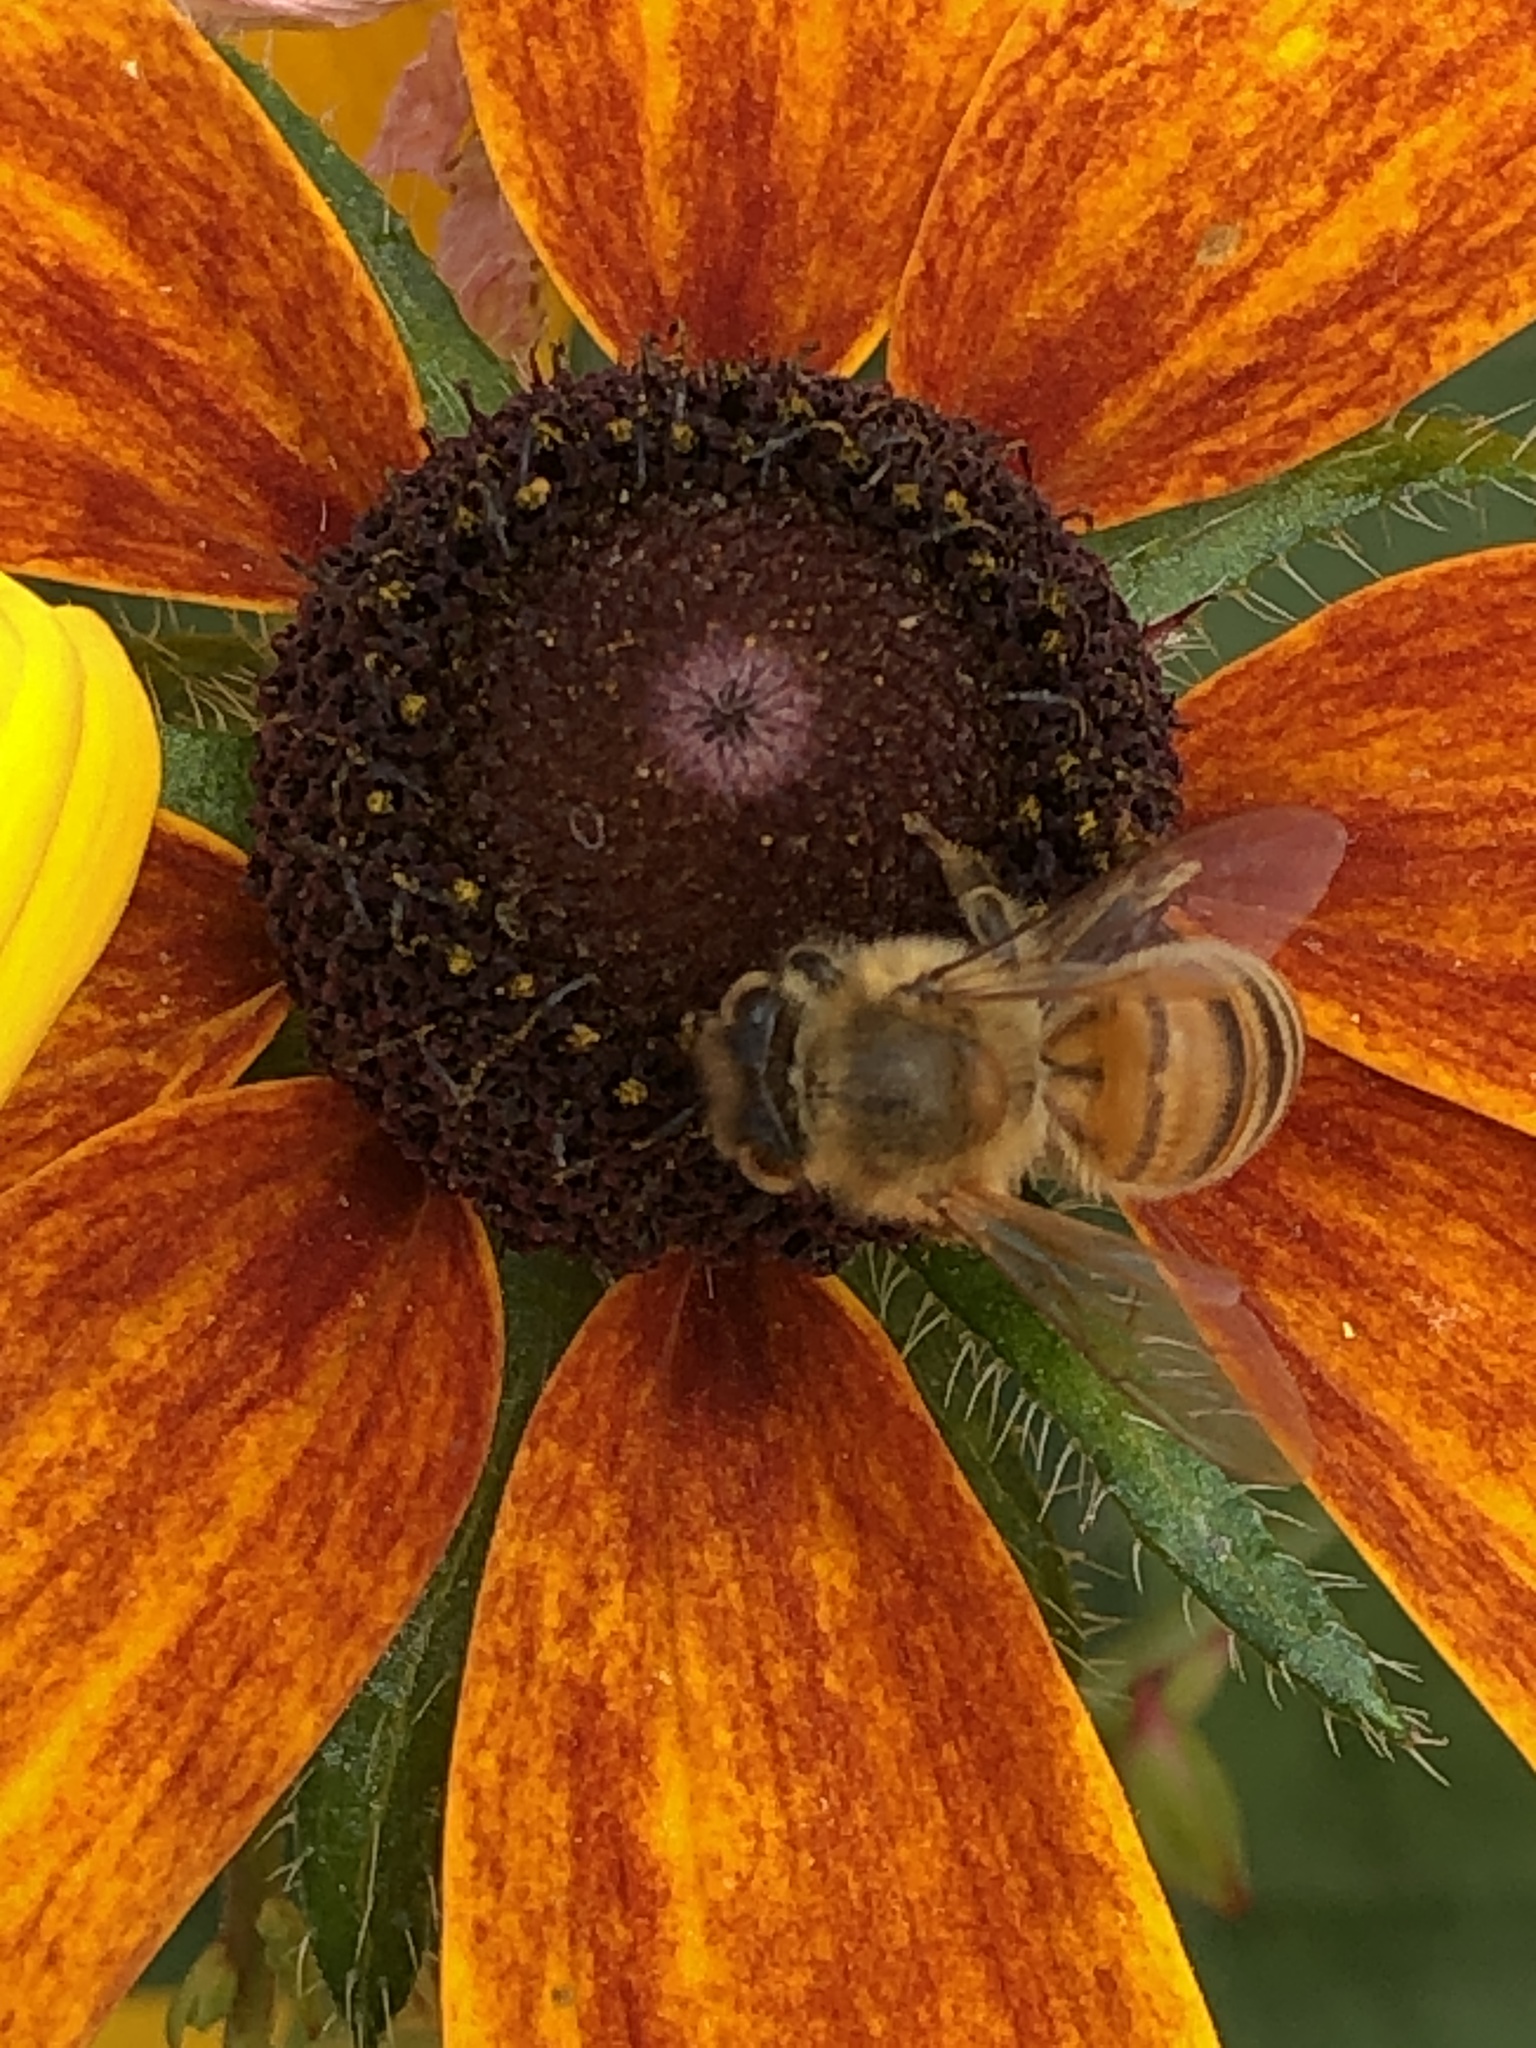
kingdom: Animalia
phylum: Arthropoda
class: Insecta
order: Hymenoptera
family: Apidae
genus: Apis
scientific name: Apis mellifera
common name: Honey bee
